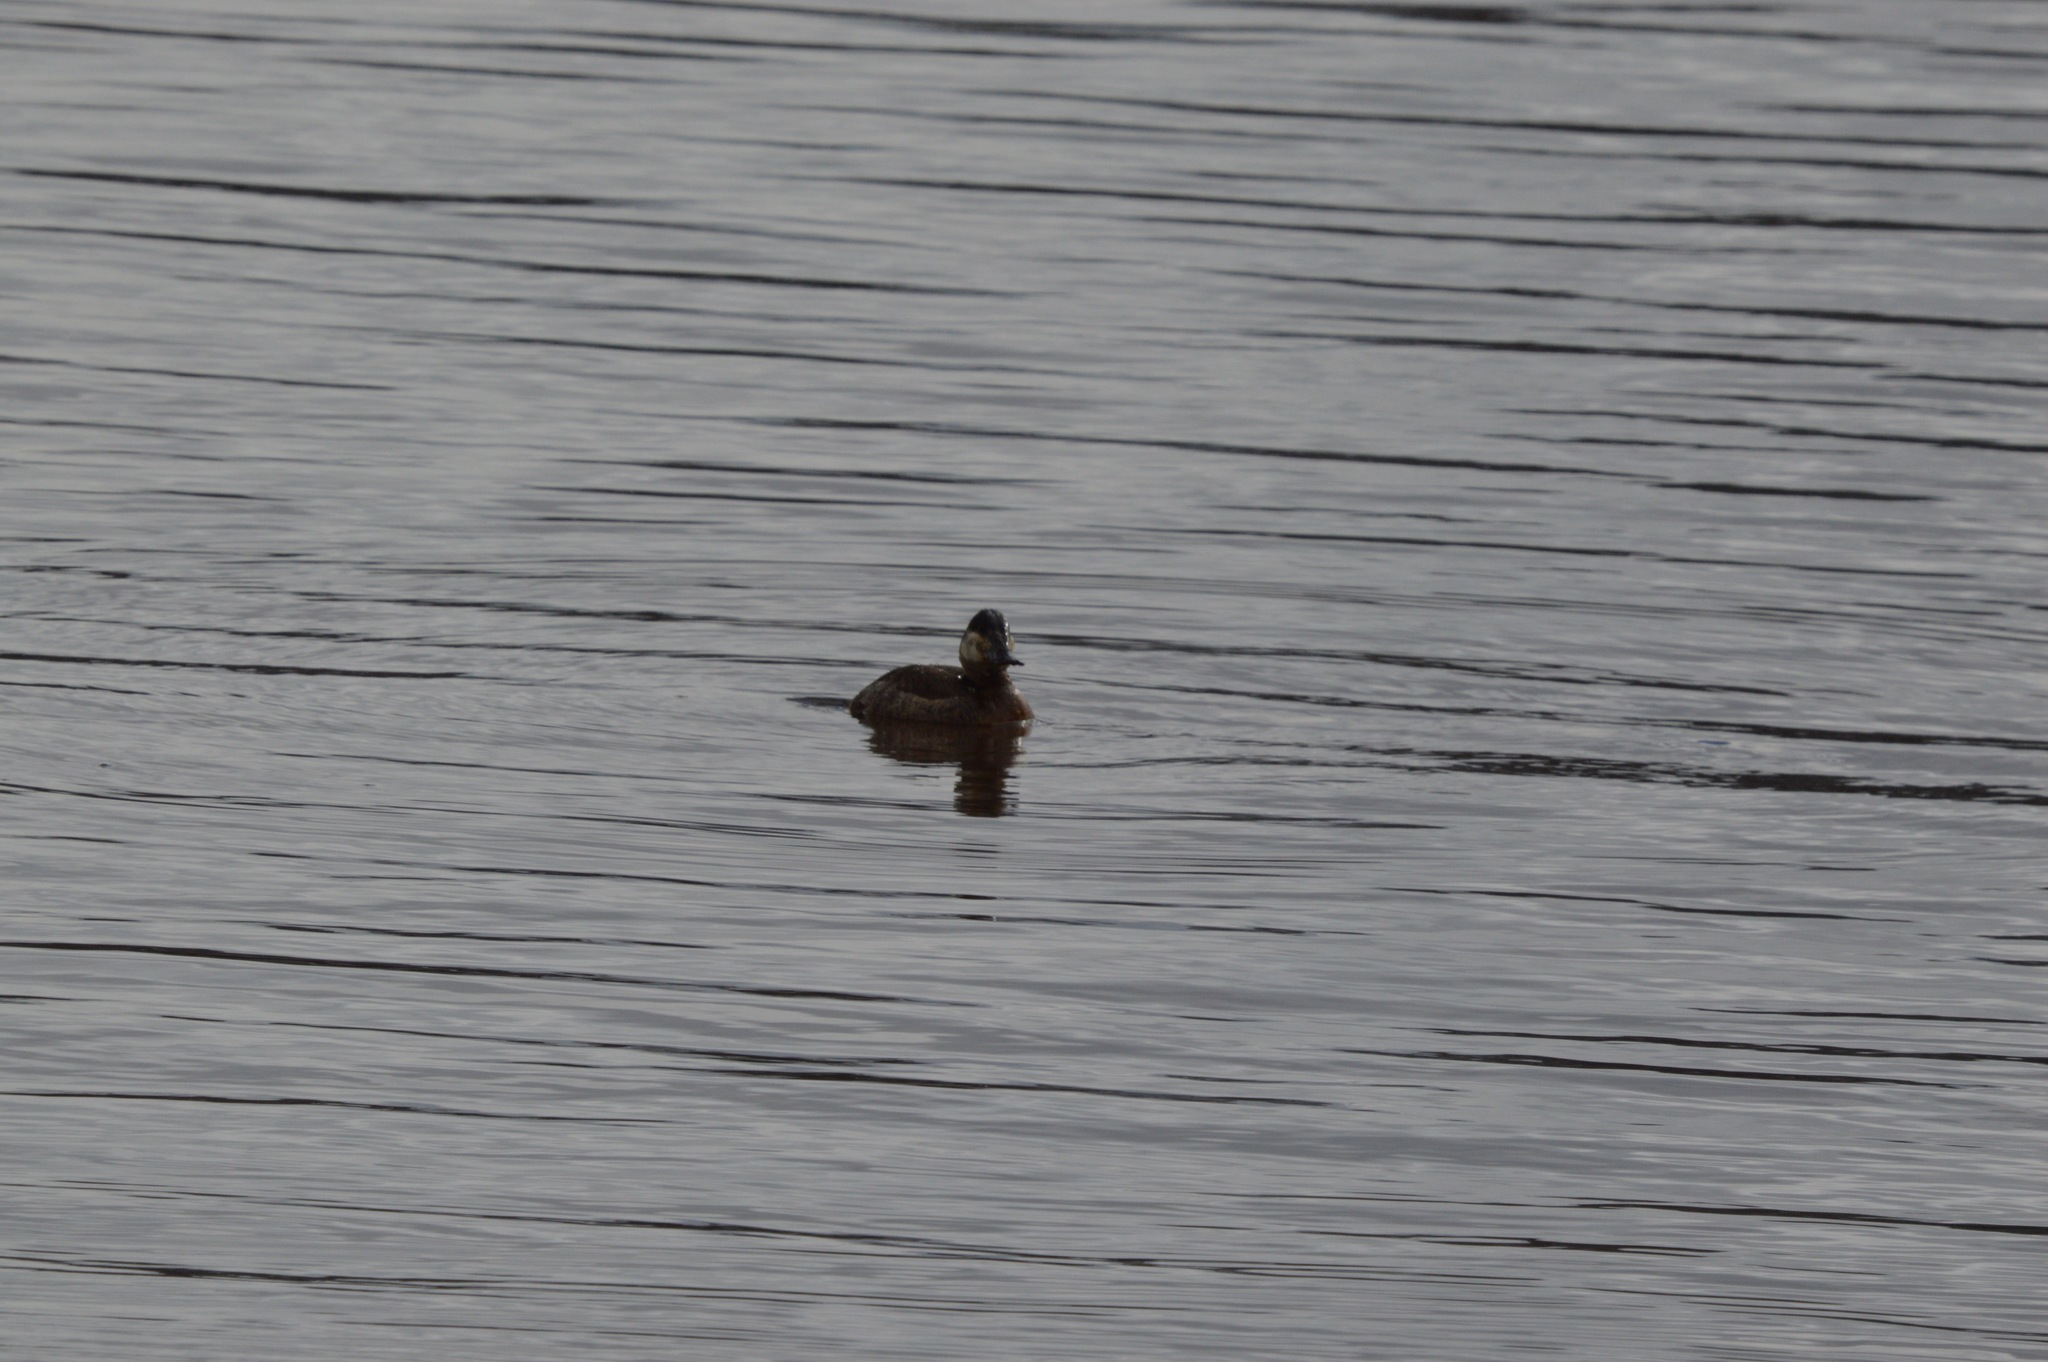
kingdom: Animalia
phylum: Chordata
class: Aves
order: Anseriformes
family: Anatidae
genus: Oxyura
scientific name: Oxyura jamaicensis
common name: Ruddy duck
